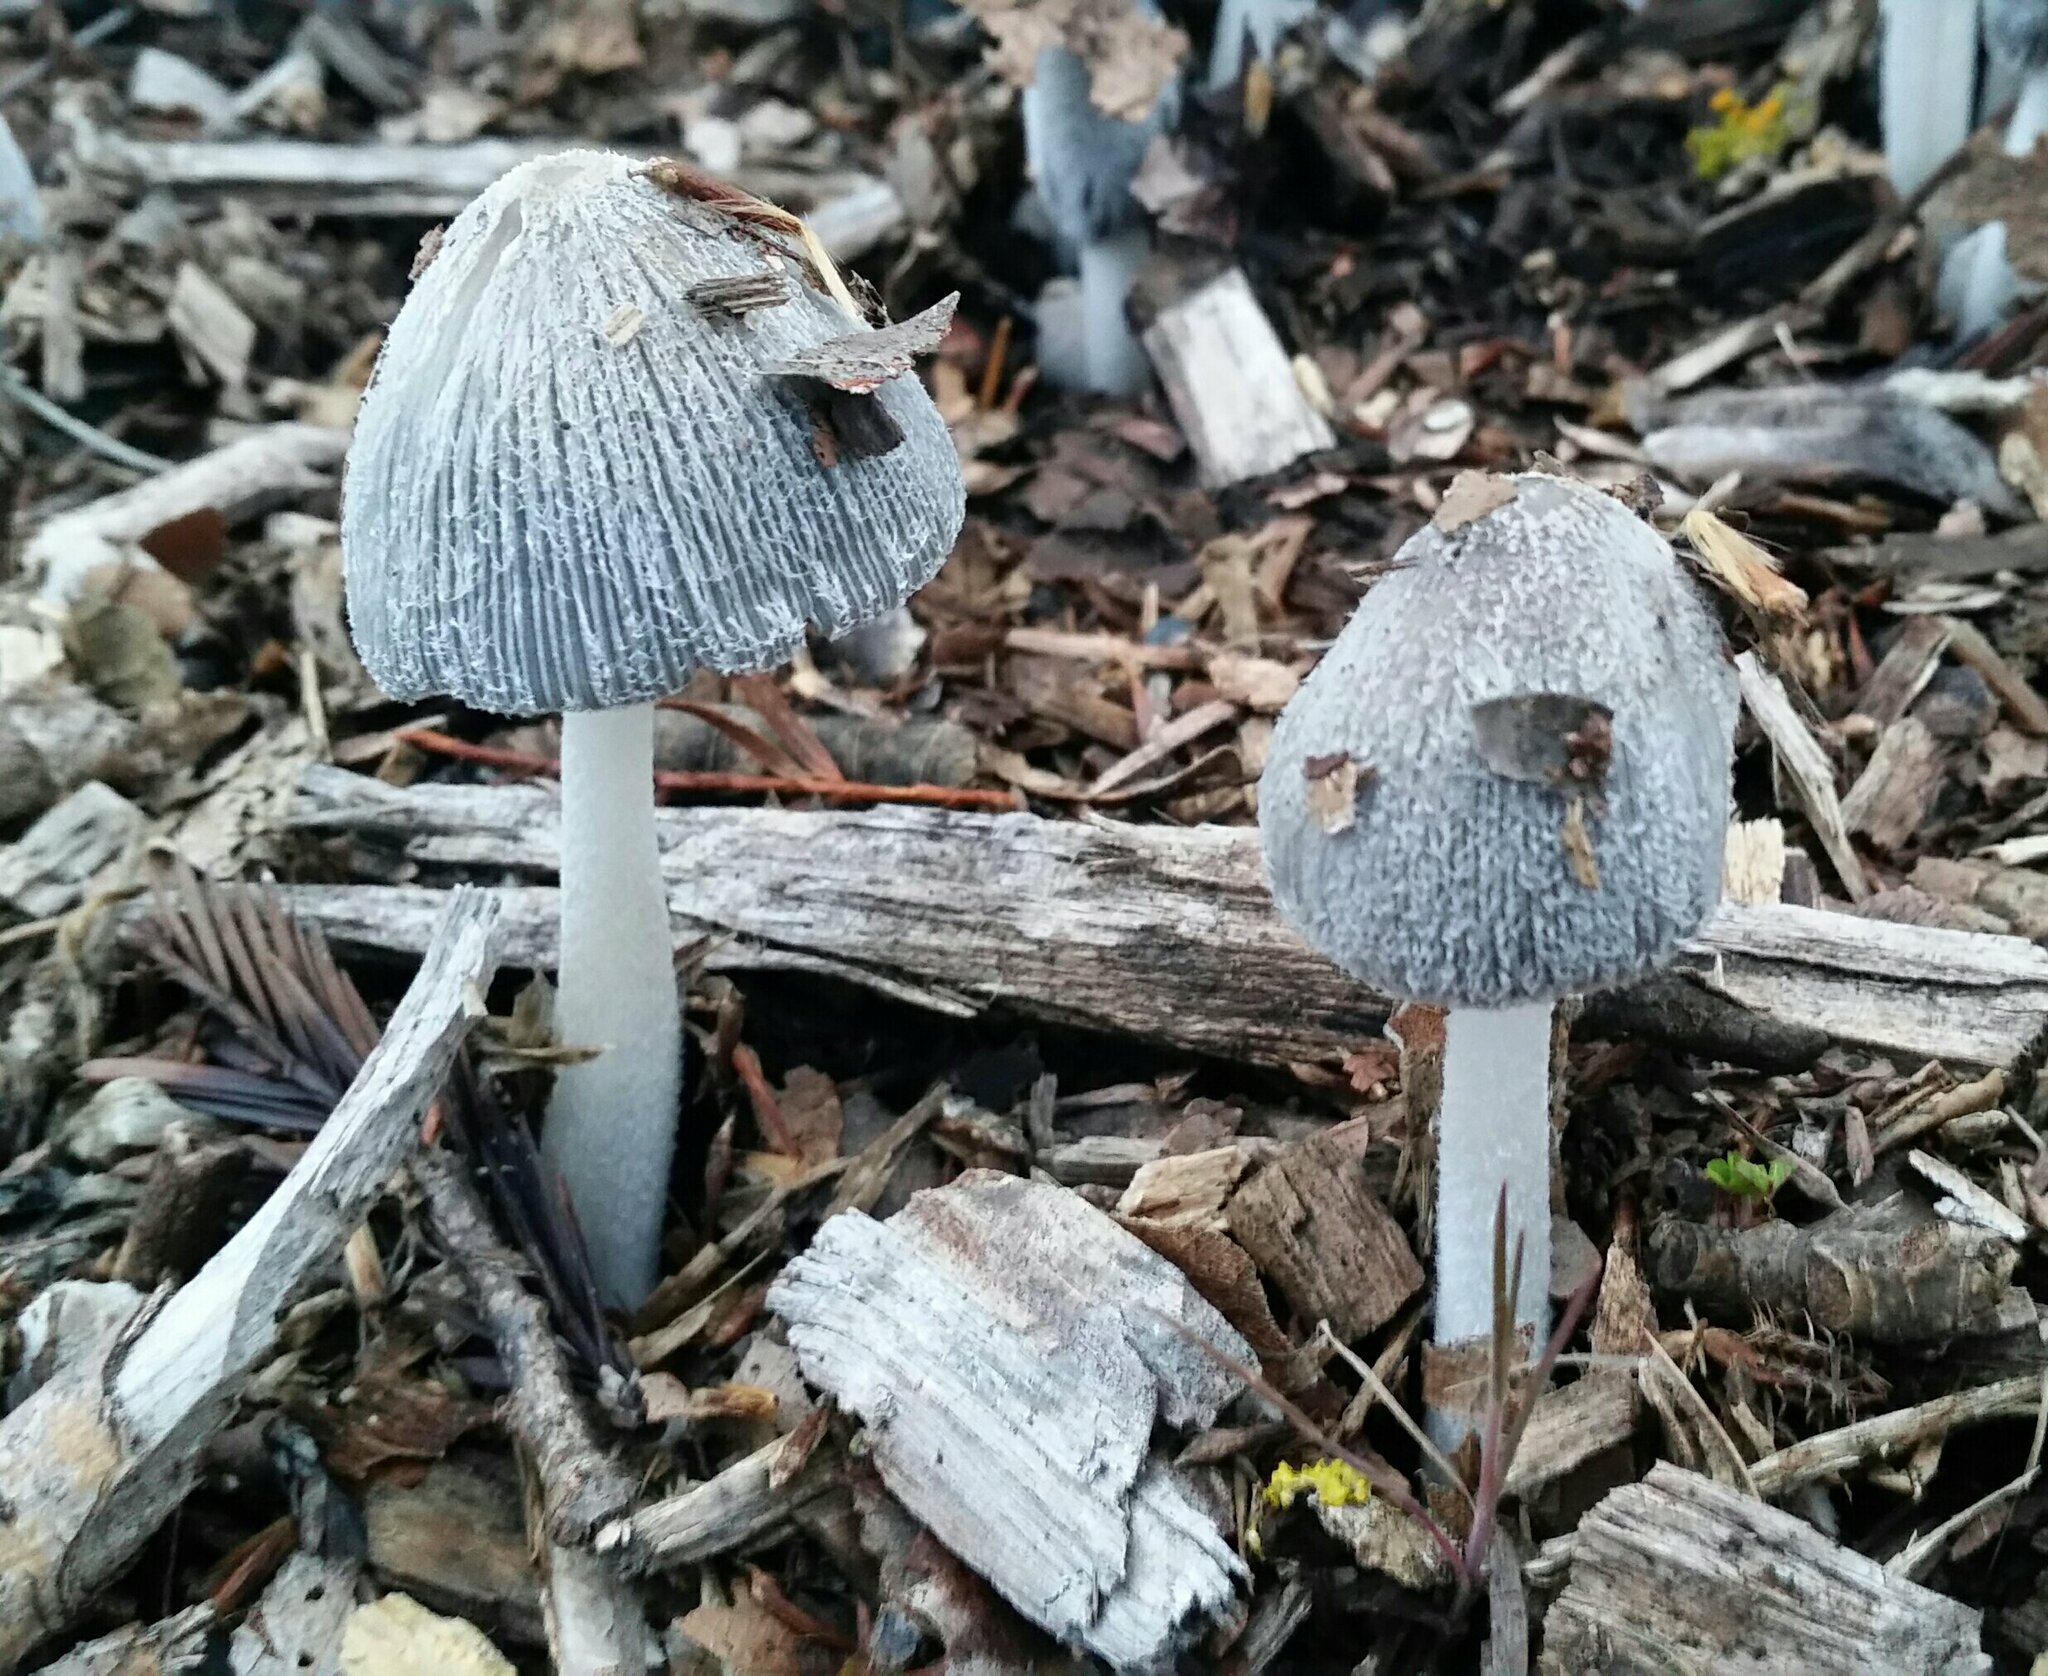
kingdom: Fungi
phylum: Basidiomycota
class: Agaricomycetes
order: Agaricales
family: Psathyrellaceae
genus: Coprinopsis
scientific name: Coprinopsis lagopus
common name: Hare'sfoot inkcap
